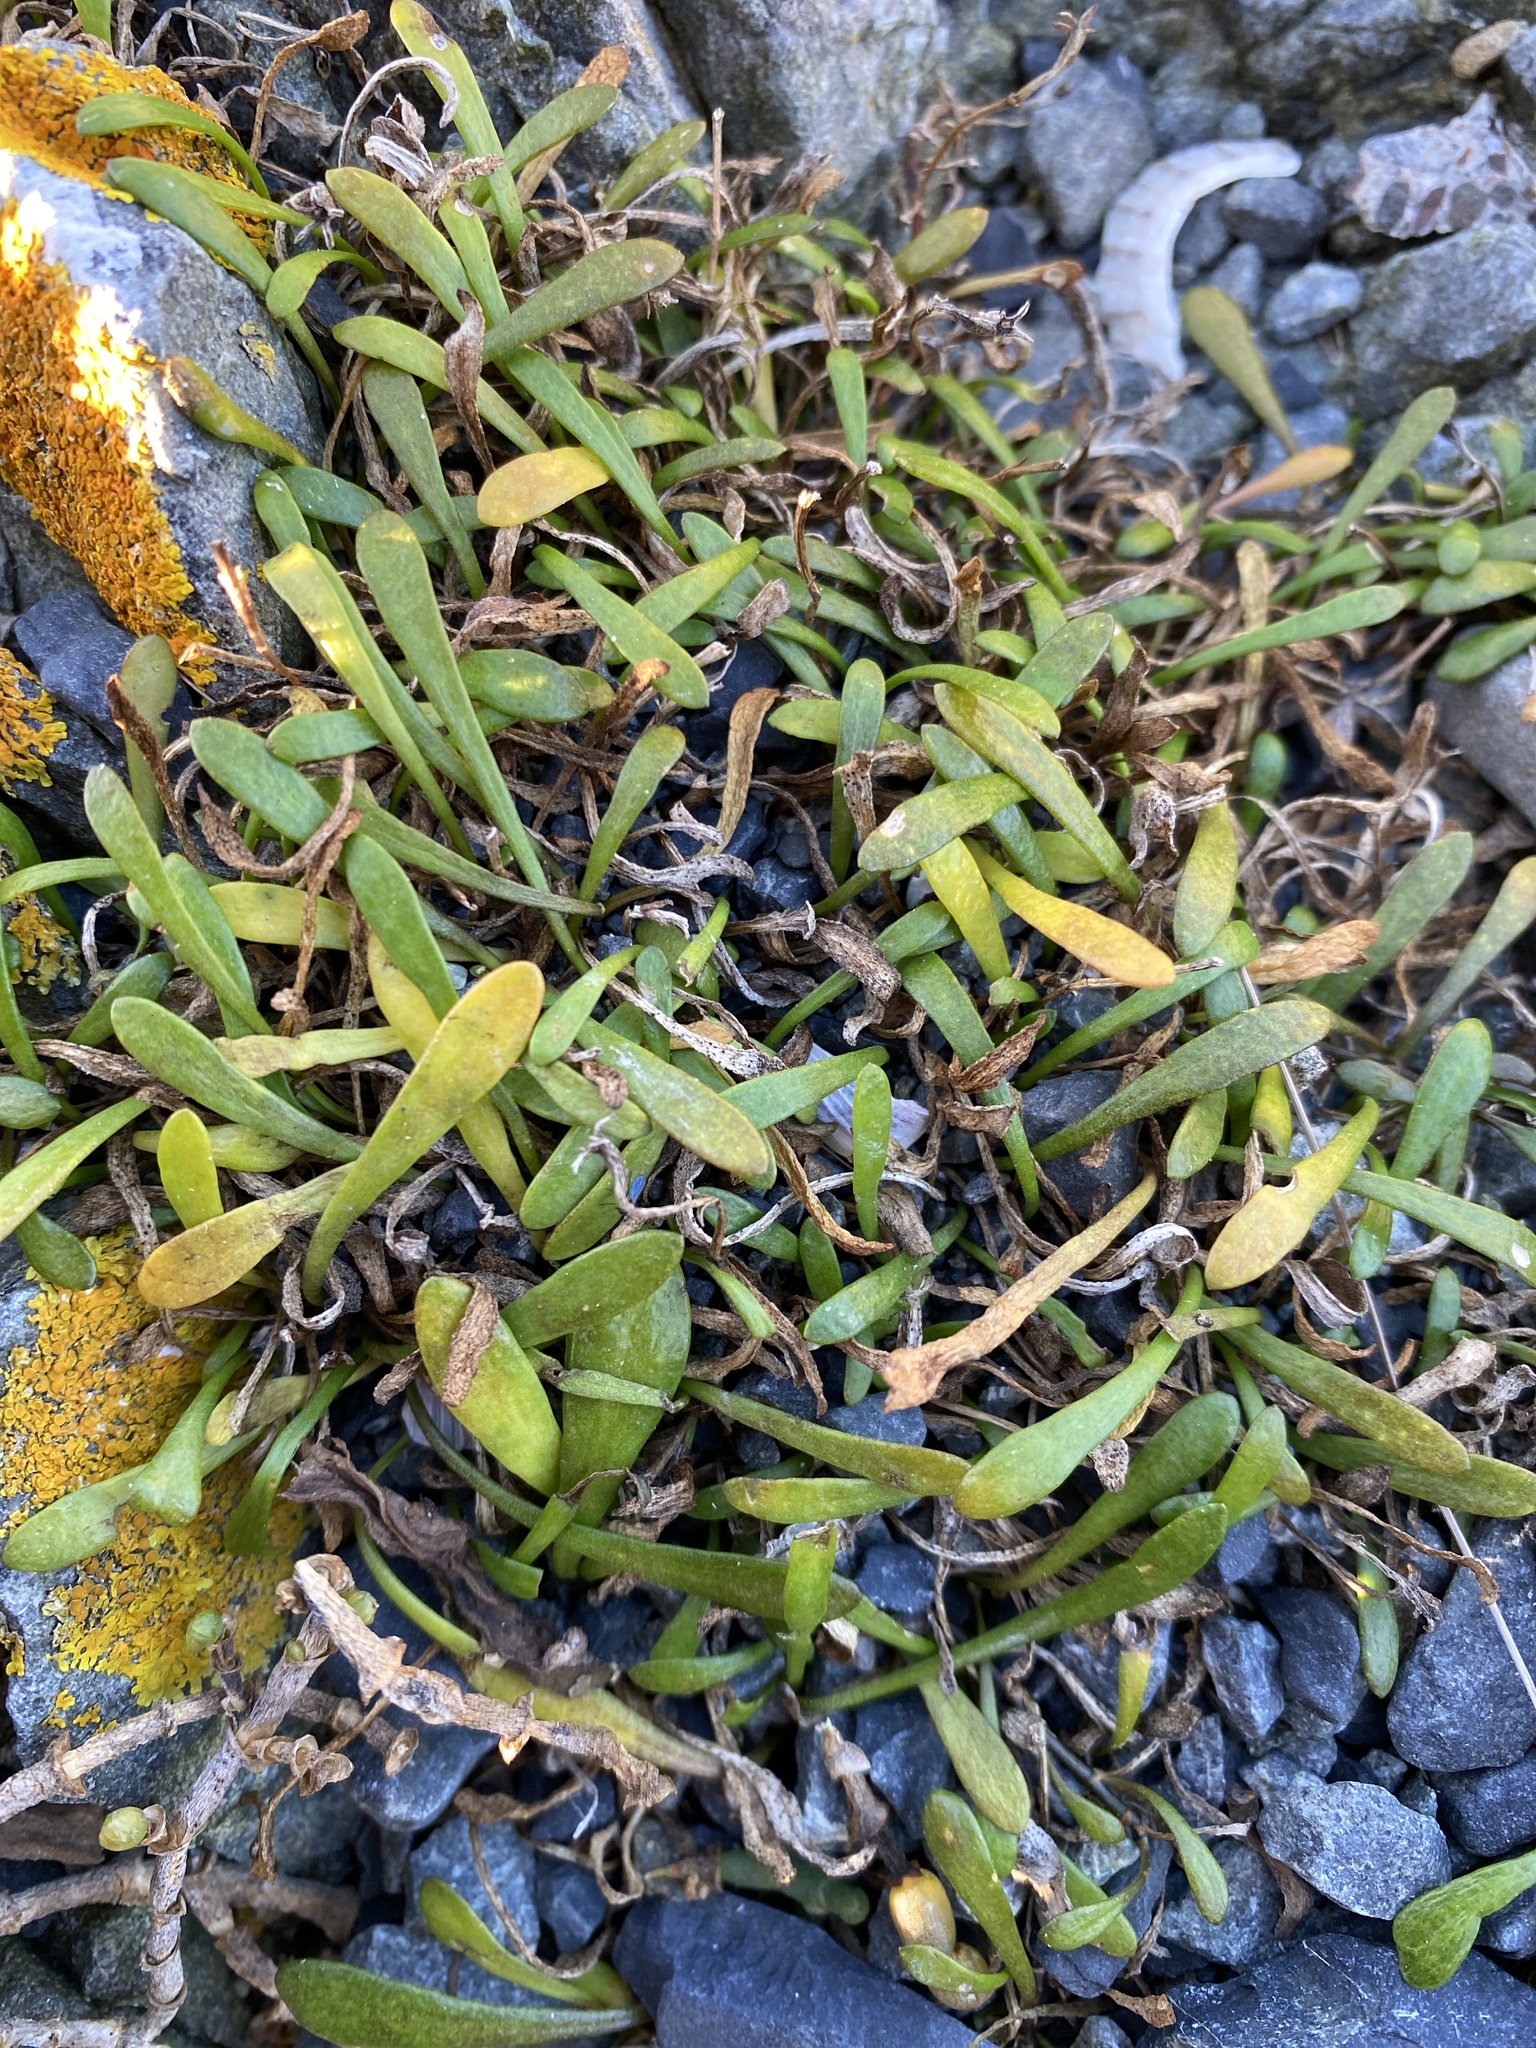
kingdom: Plantae
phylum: Tracheophyta
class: Magnoliopsida
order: Asterales
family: Goodeniaceae
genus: Goodenia
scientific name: Goodenia radicans
